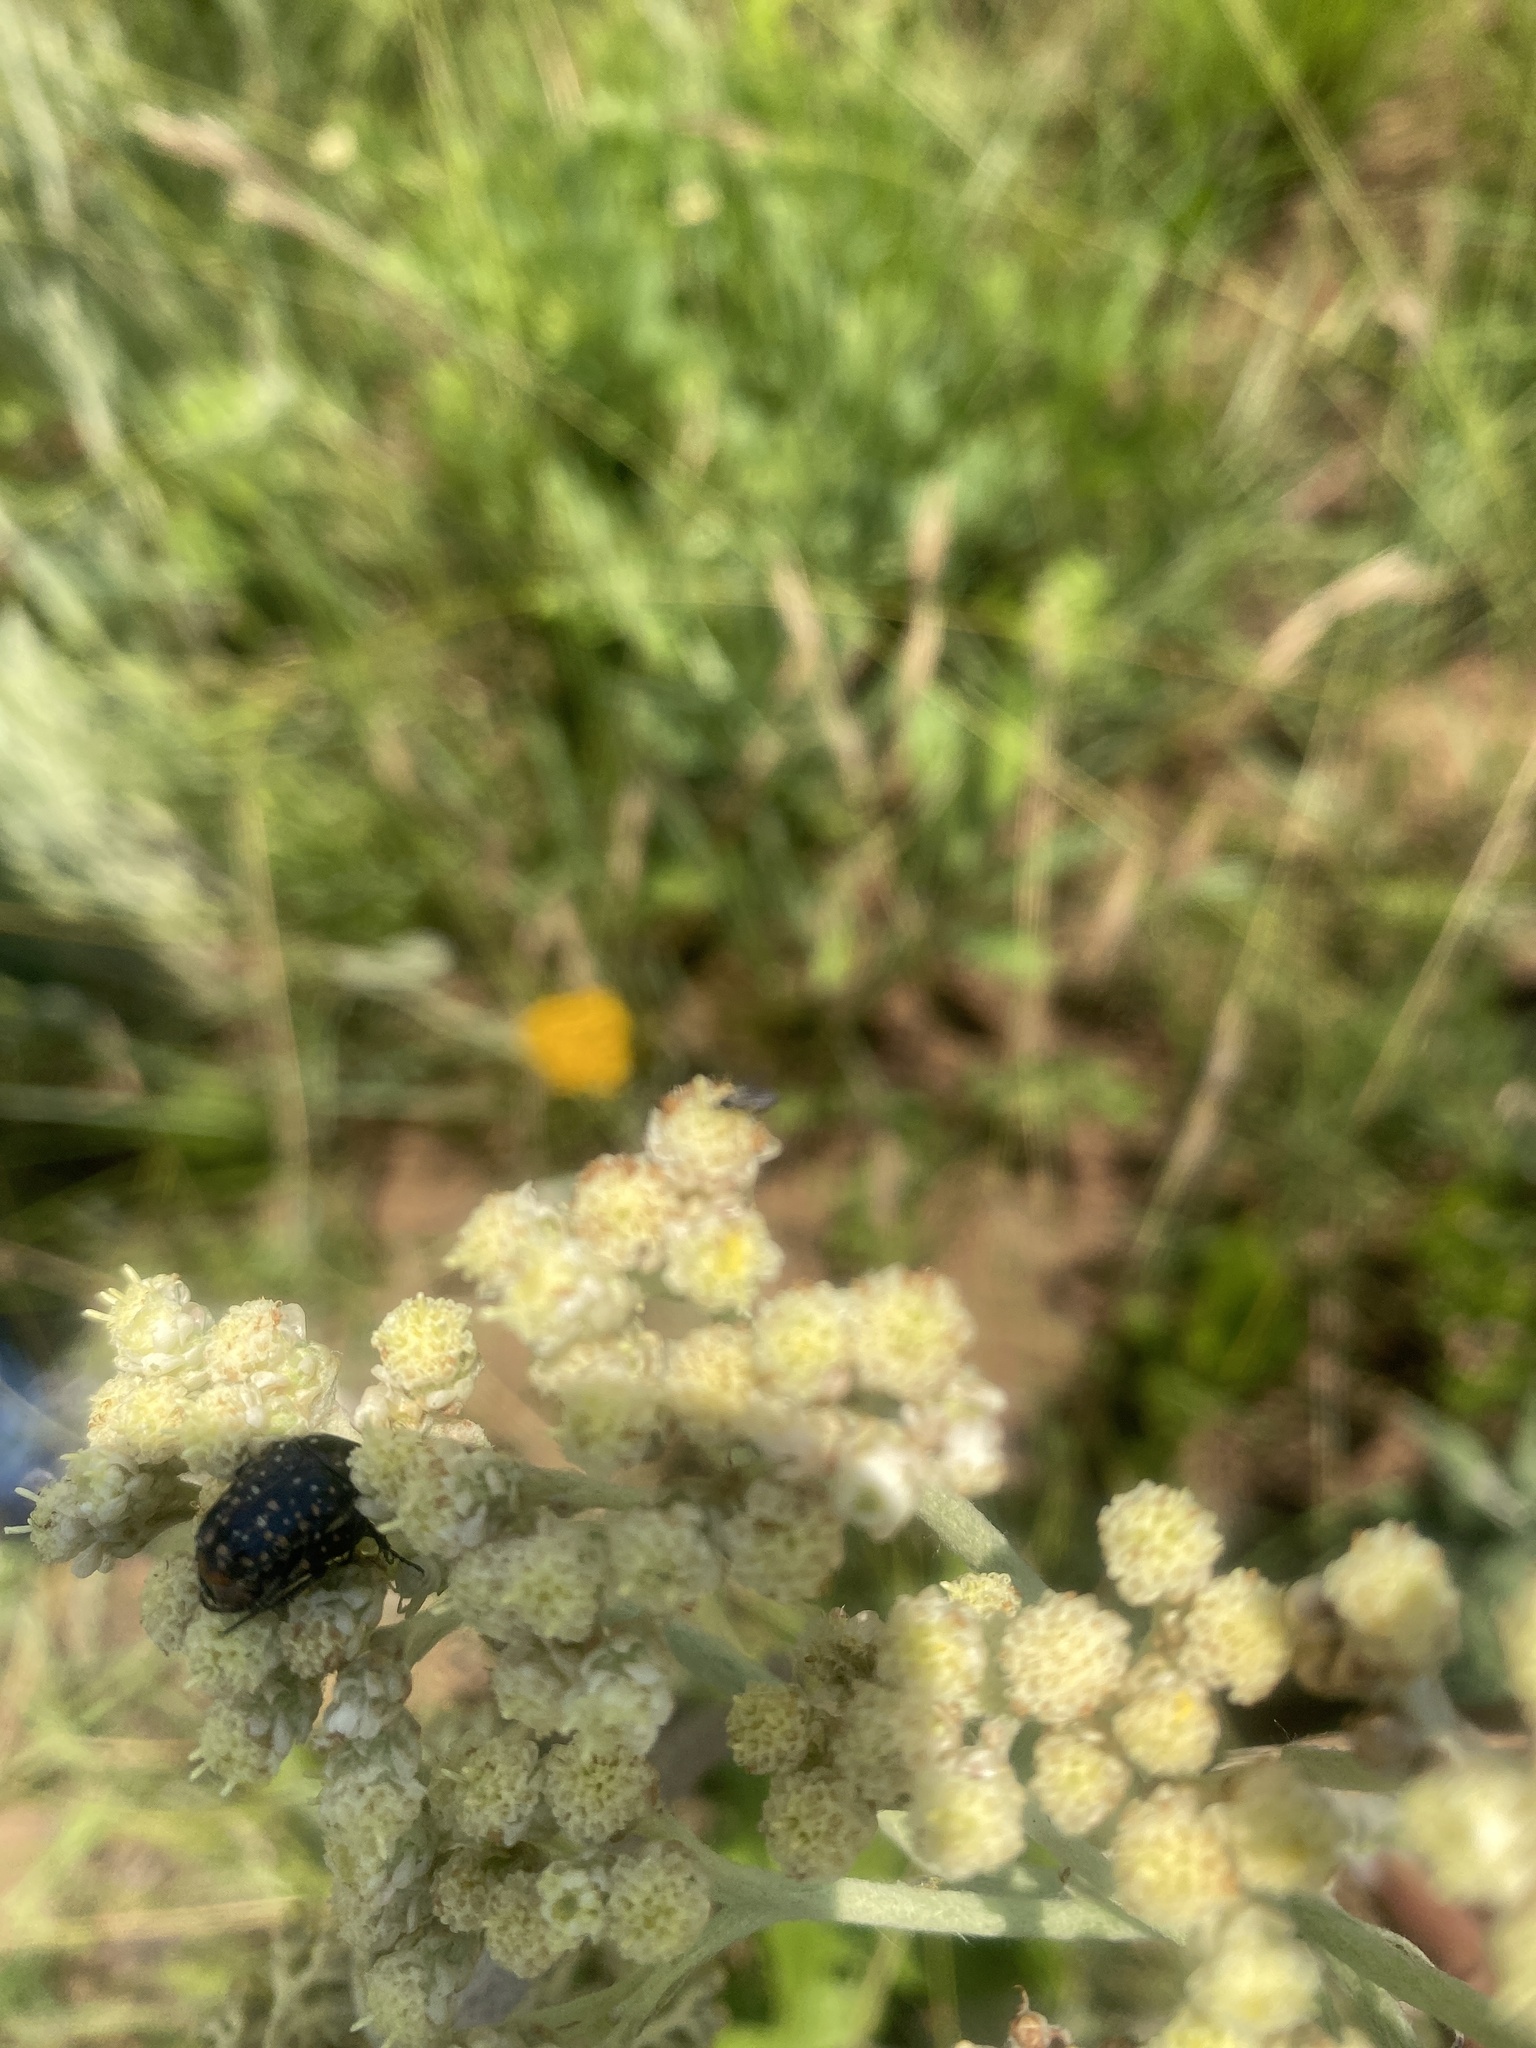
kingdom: Animalia
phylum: Arthropoda
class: Insecta
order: Coleoptera
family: Scarabaeidae
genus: Oxythyrea
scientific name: Oxythyrea
